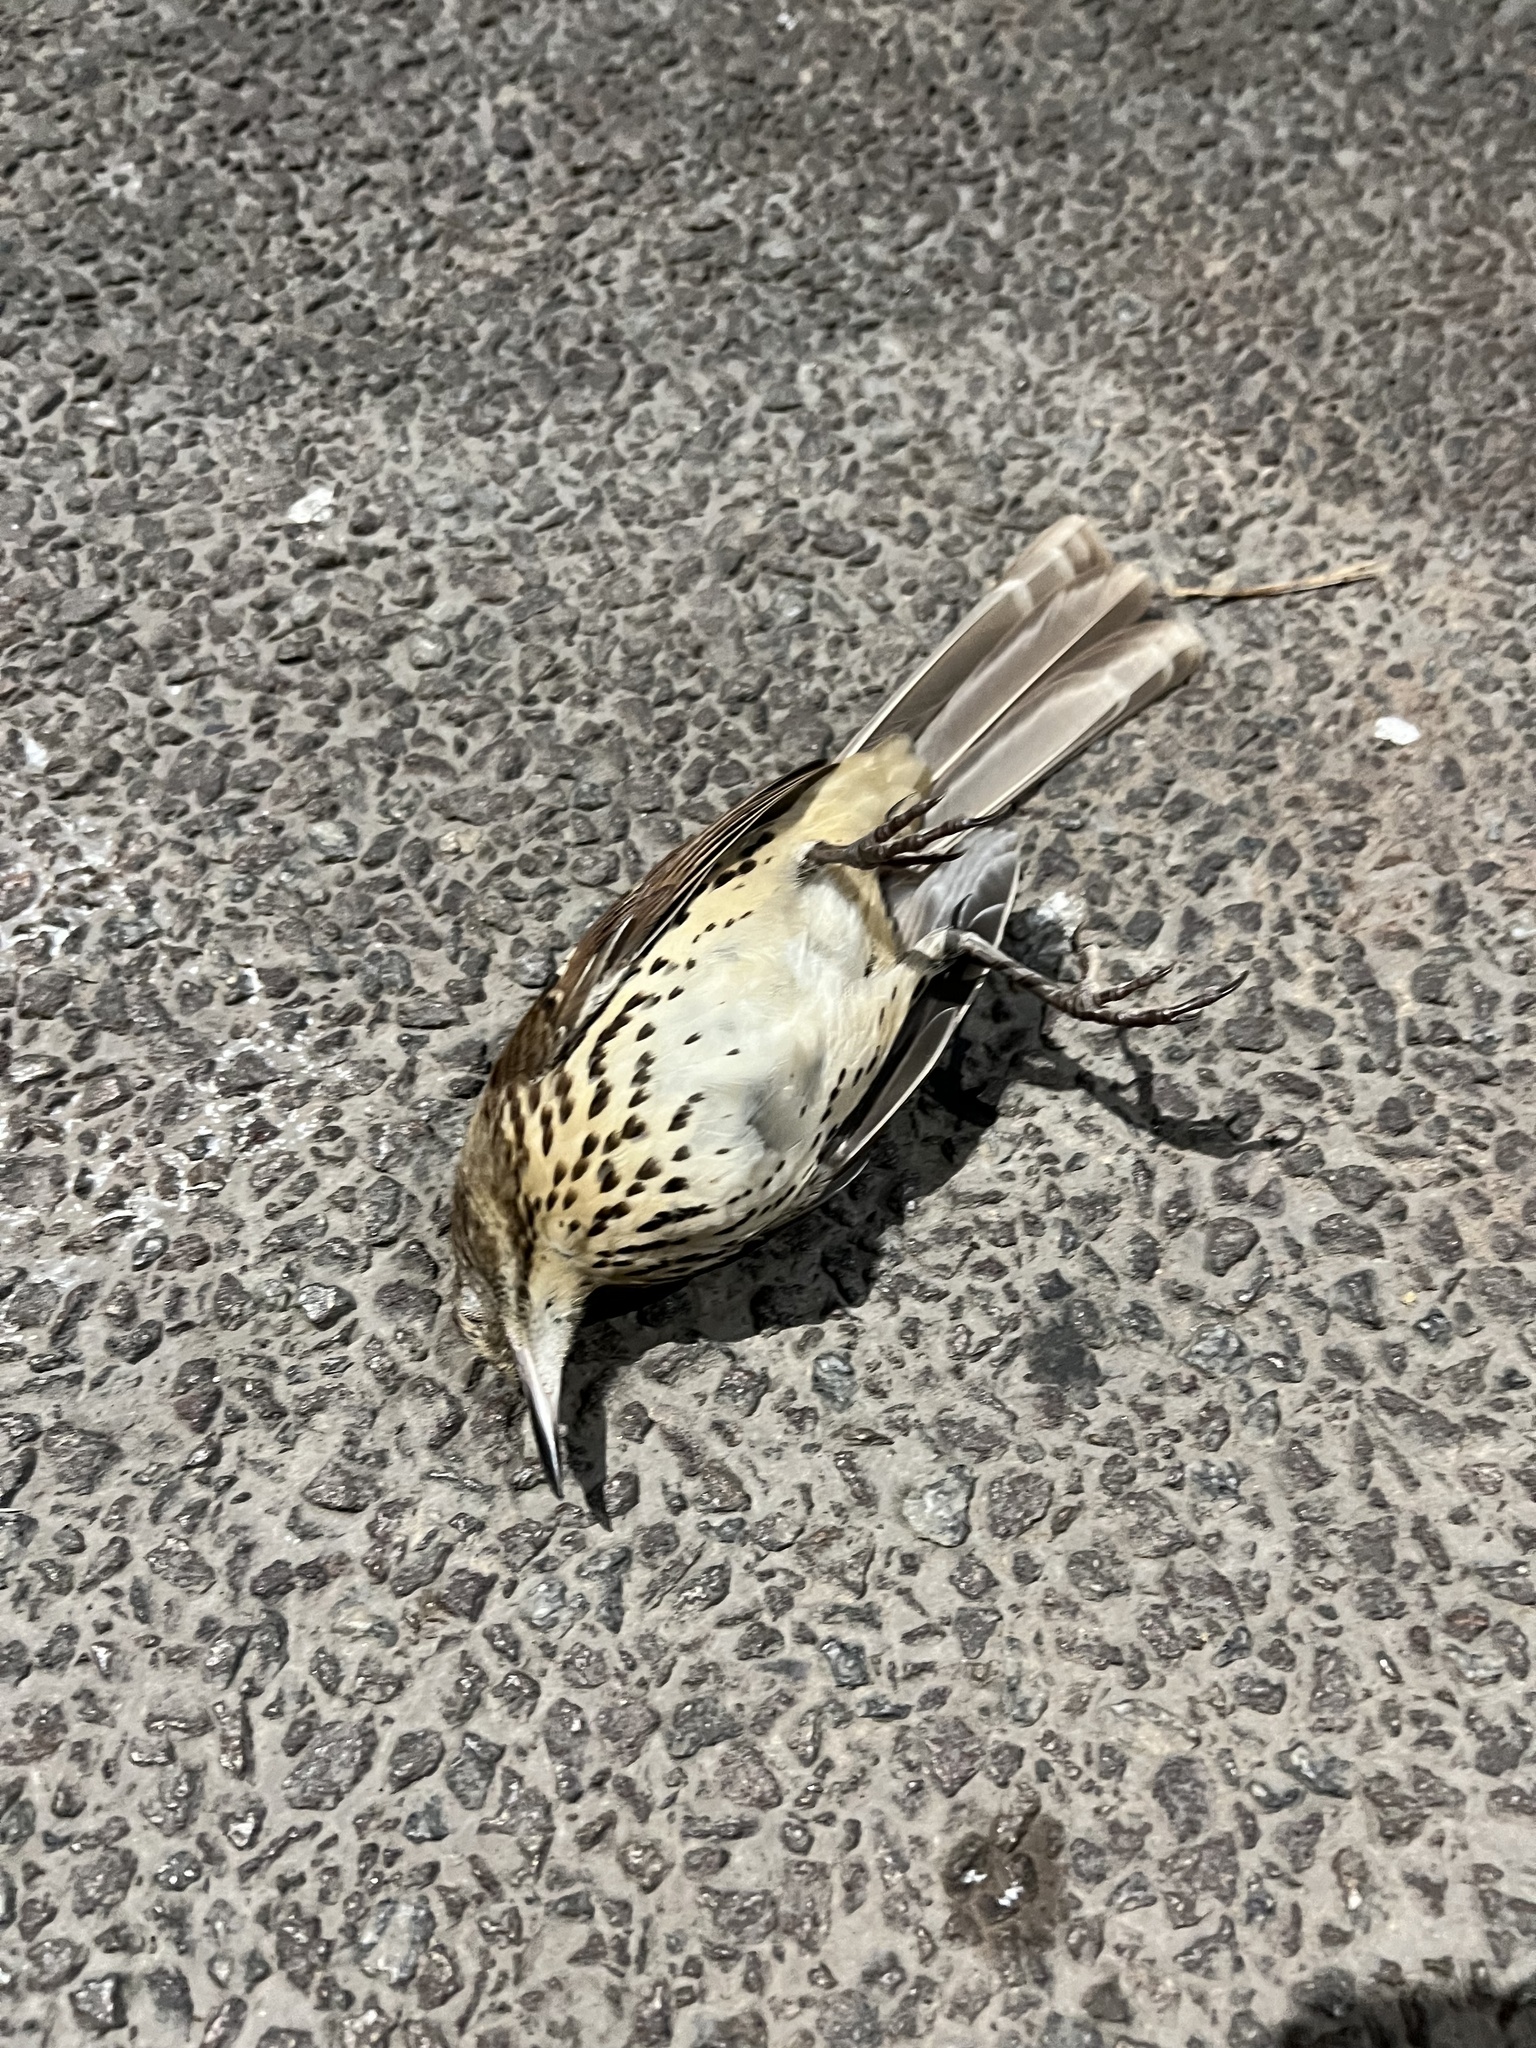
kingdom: Animalia
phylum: Chordata
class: Aves
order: Passeriformes
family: Mimidae
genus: Toxostoma
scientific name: Toxostoma rufum
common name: Brown thrasher
